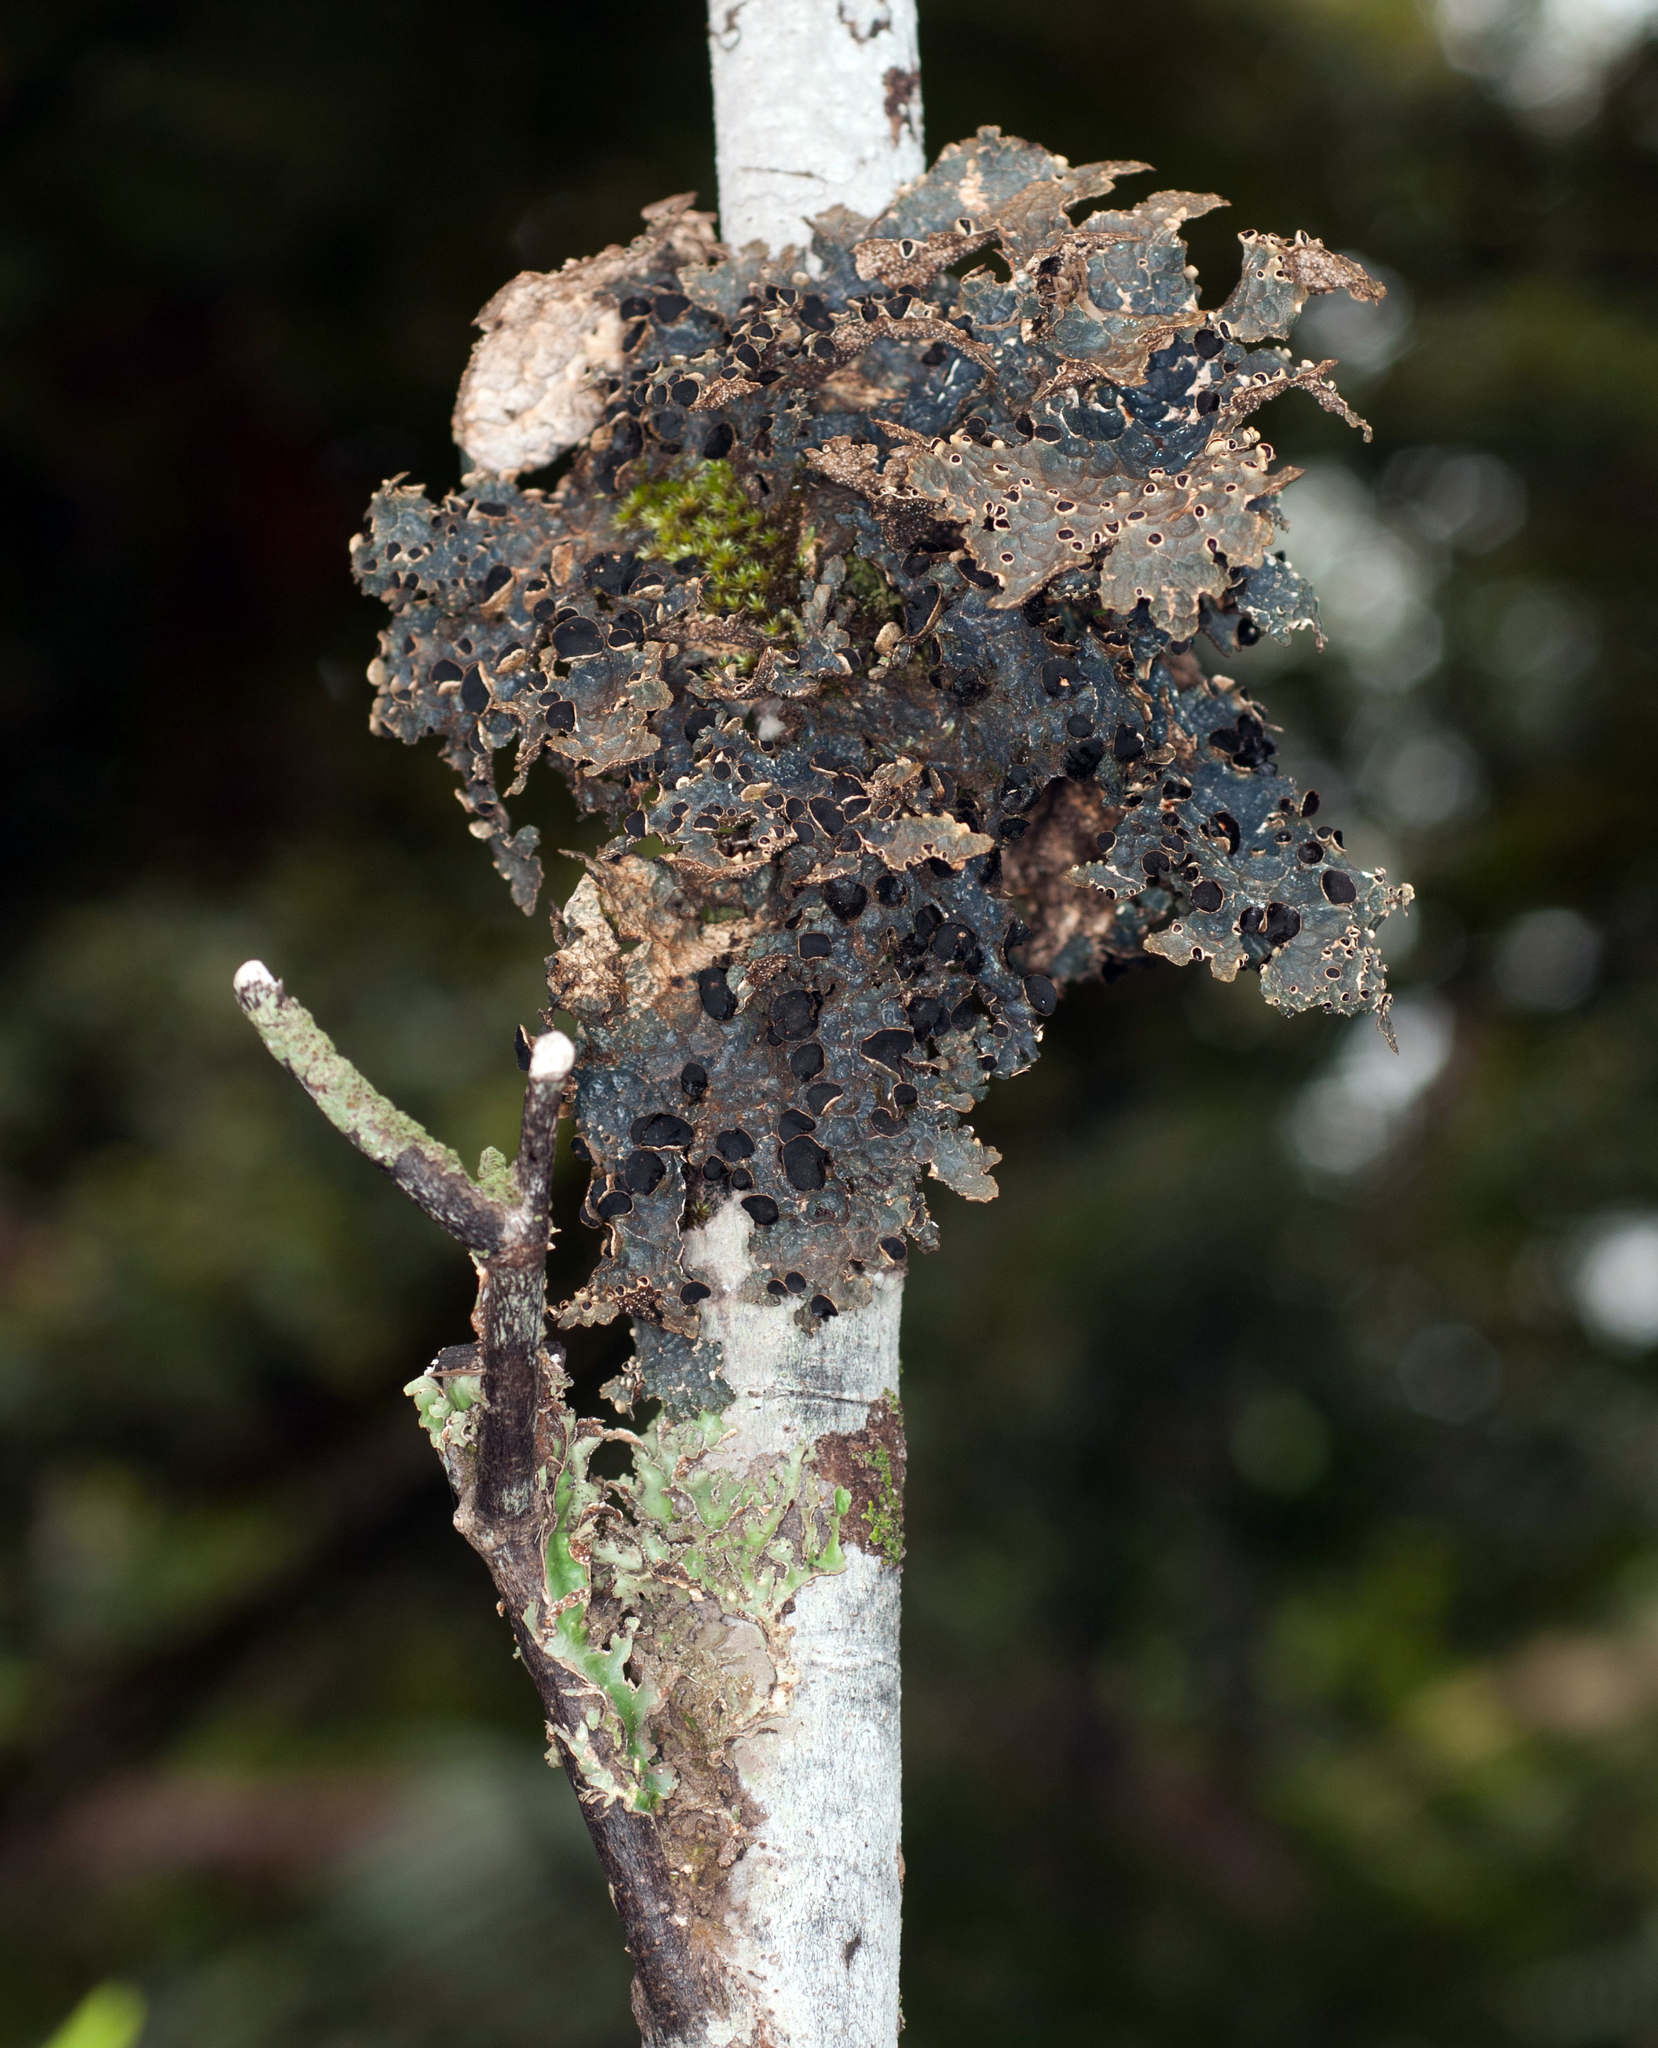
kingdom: Fungi
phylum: Ascomycota
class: Lecanoromycetes
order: Peltigerales
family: Lobariaceae
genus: Pseudocyphellaria
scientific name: Pseudocyphellaria hookeri
